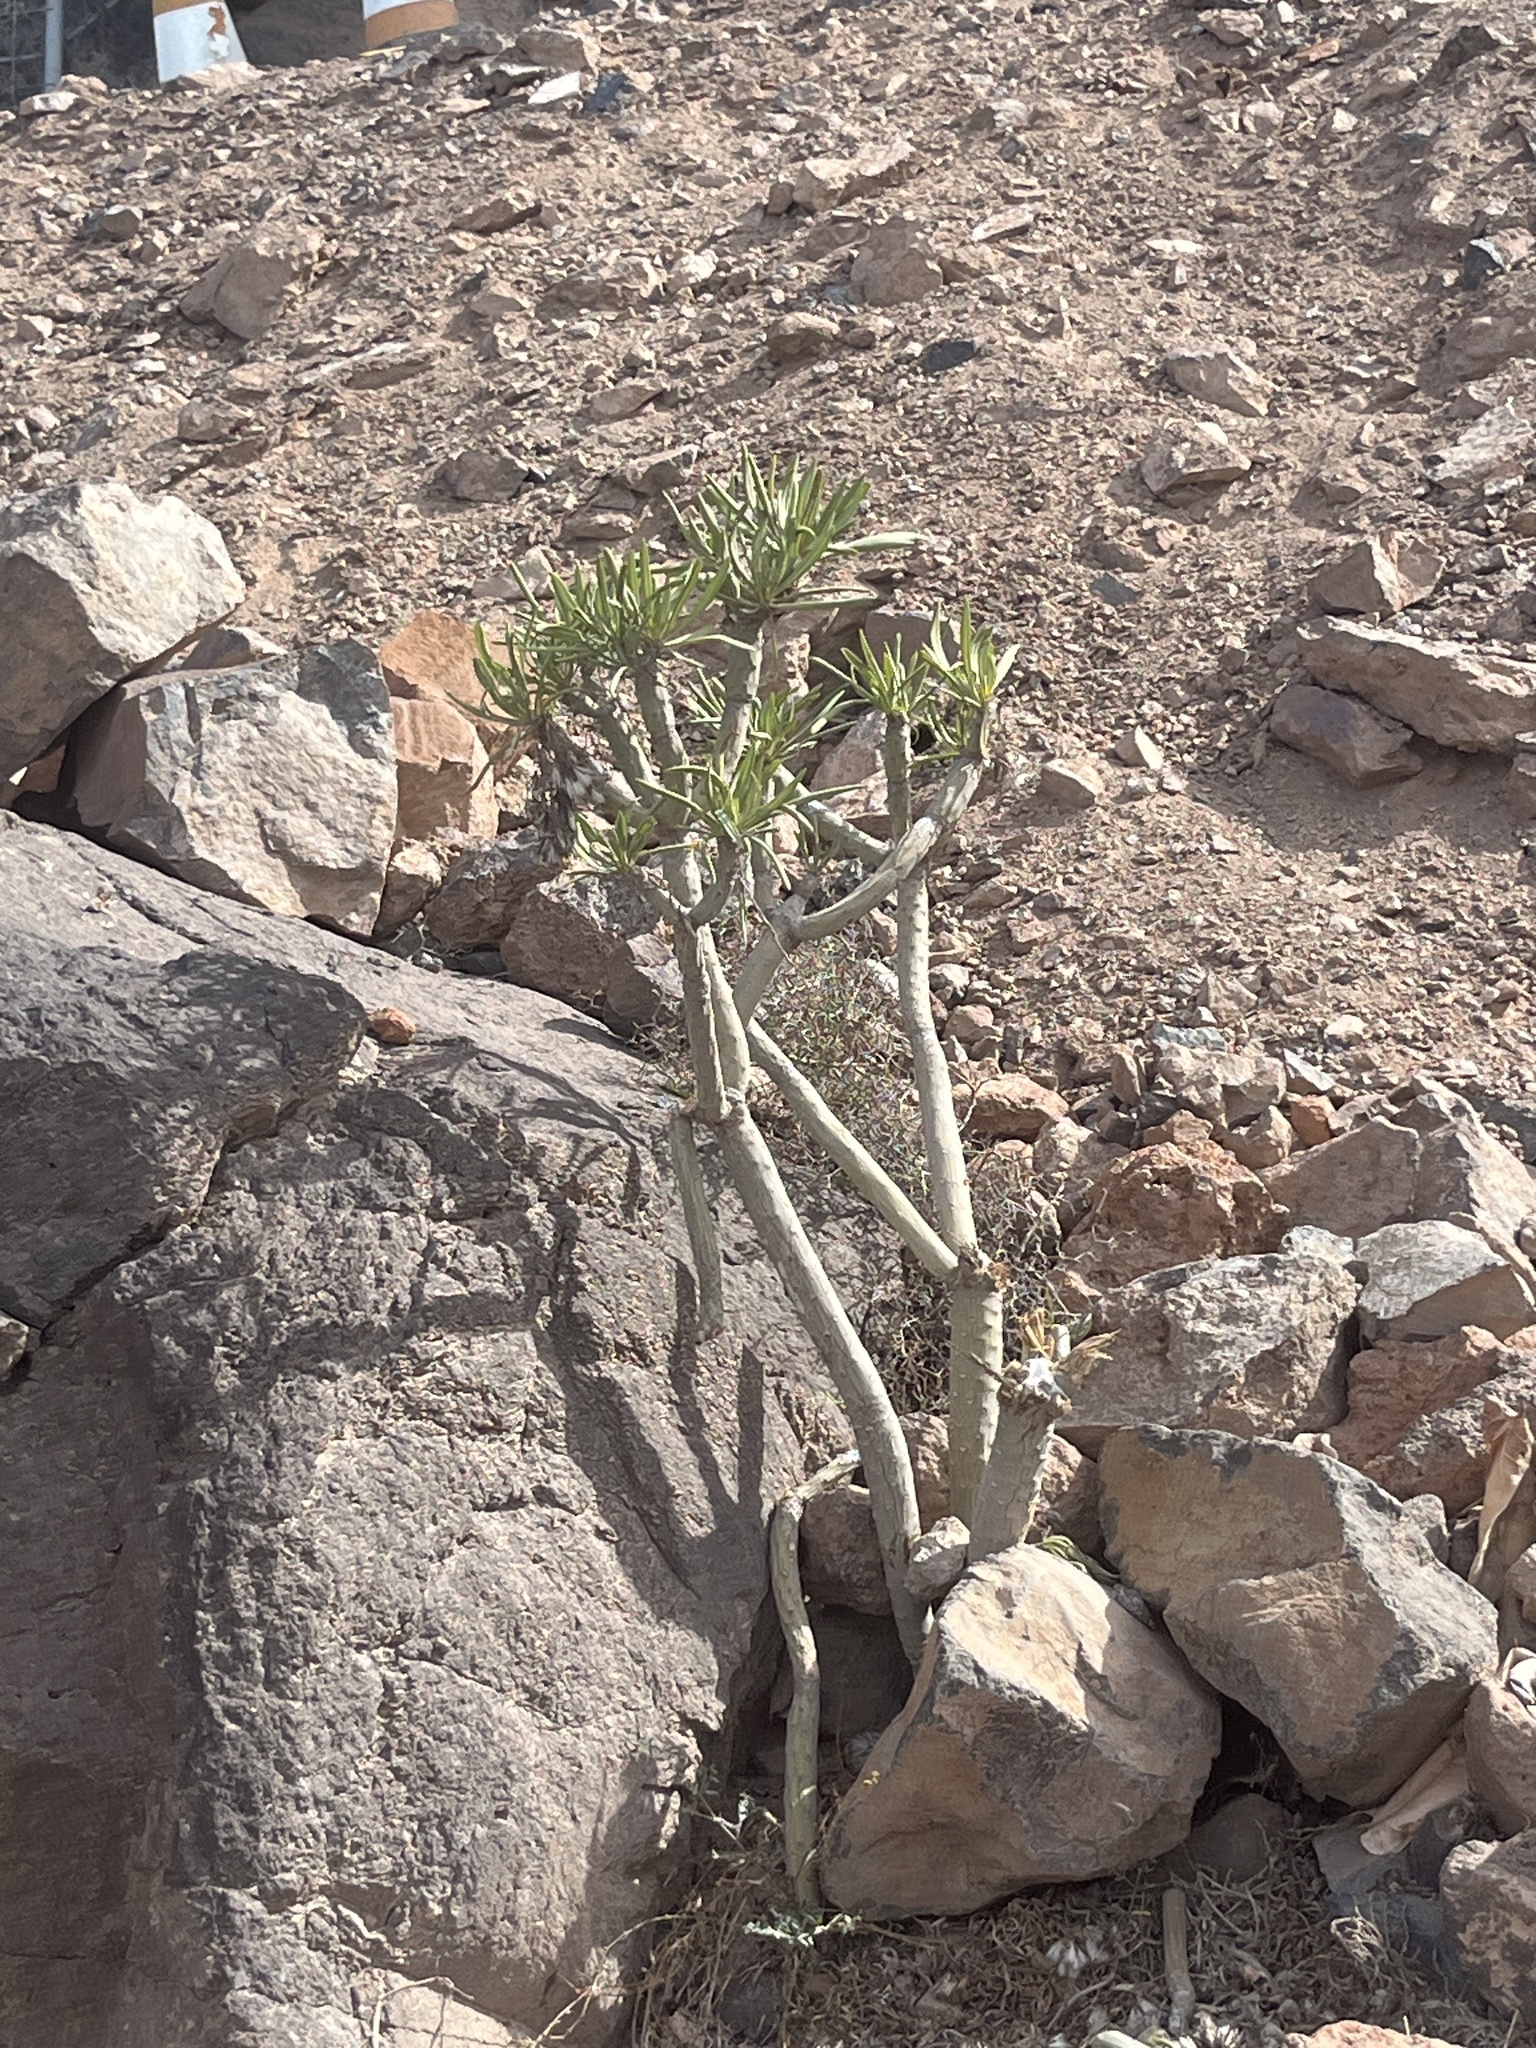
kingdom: Plantae
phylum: Tracheophyta
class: Magnoliopsida
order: Asterales
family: Asteraceae
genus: Kleinia
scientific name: Kleinia neriifolia
